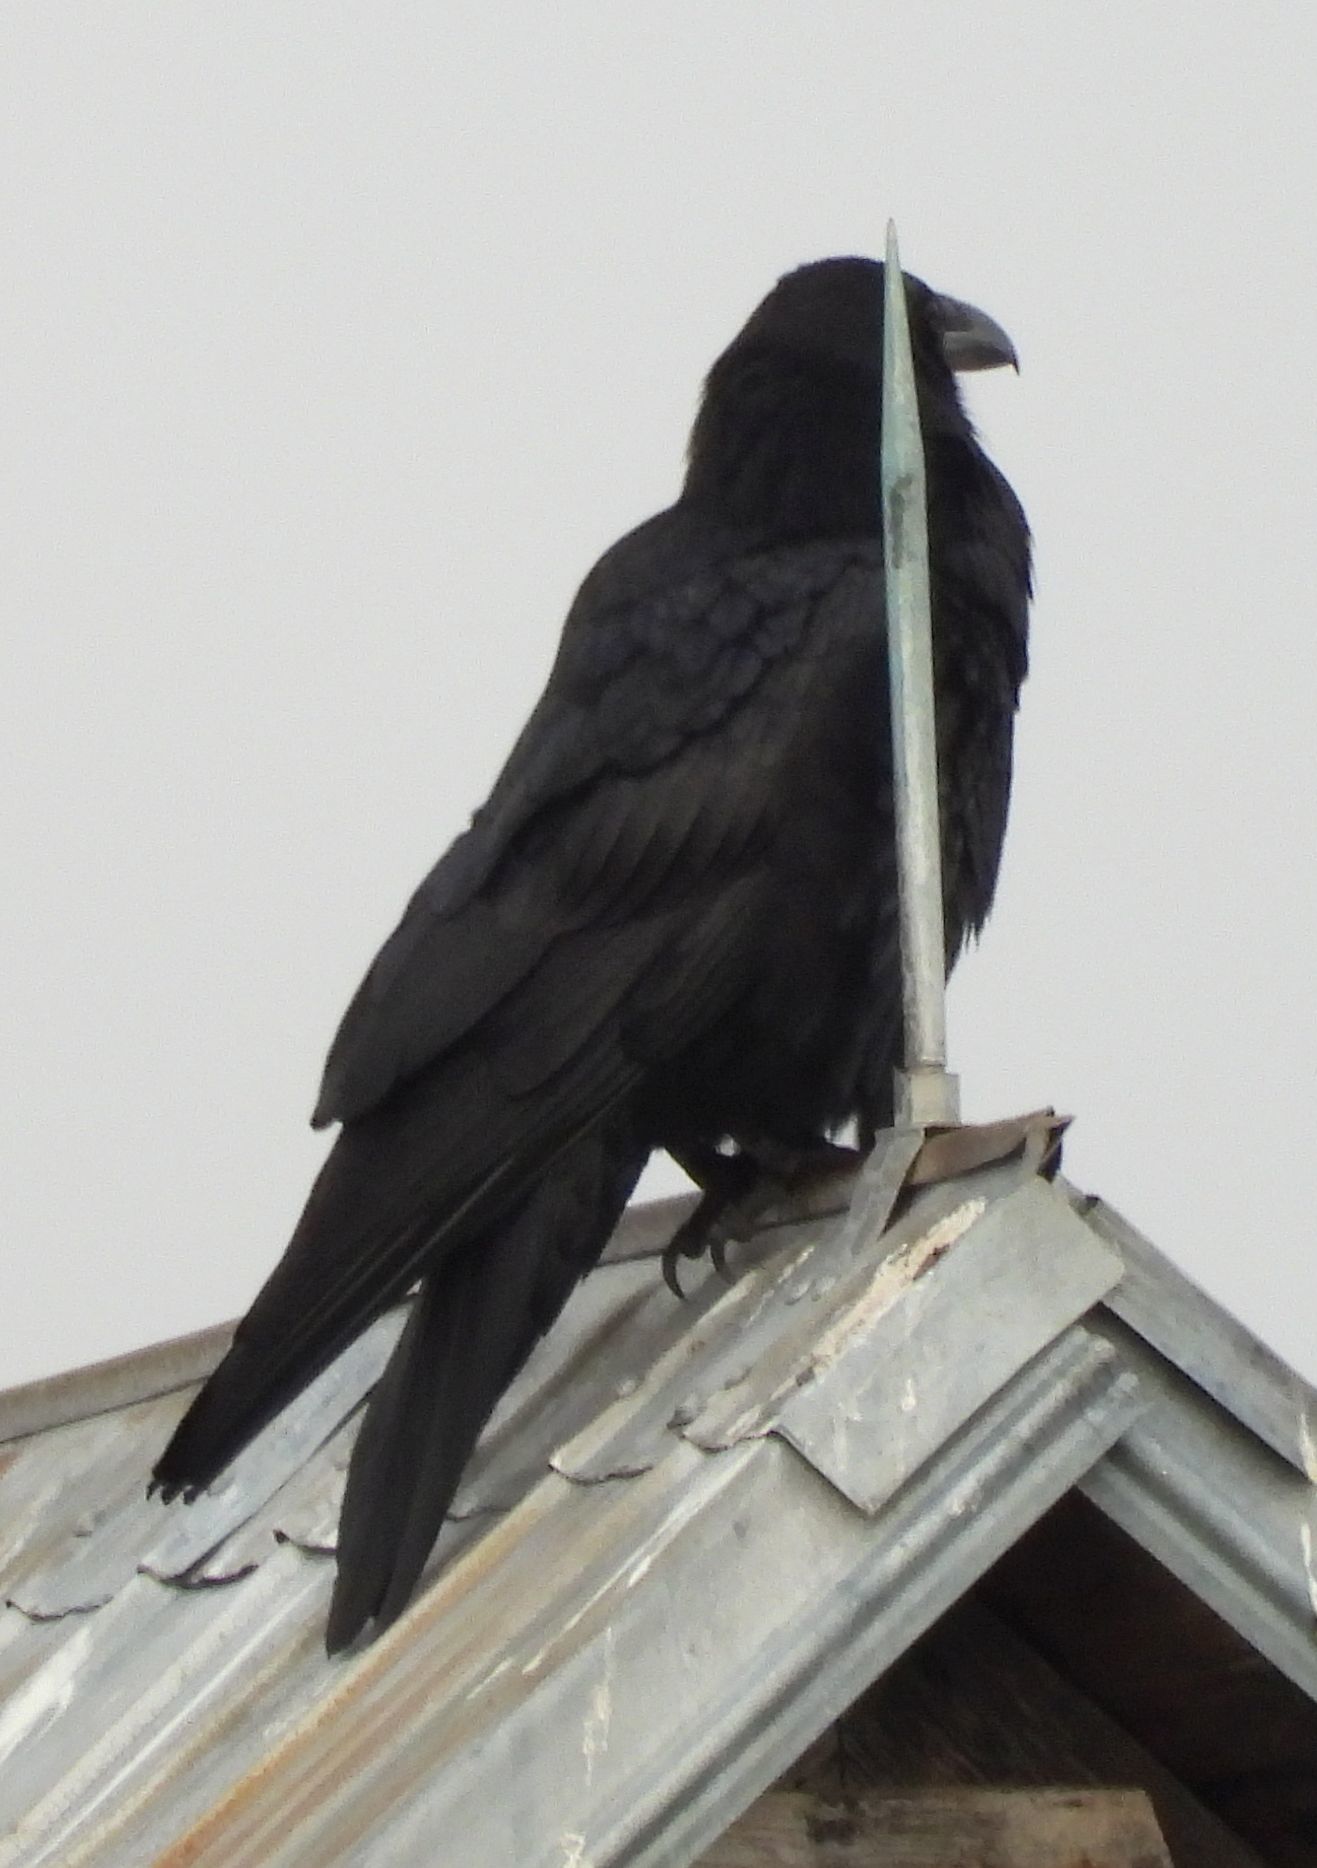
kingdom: Animalia
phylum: Chordata
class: Aves
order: Passeriformes
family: Corvidae
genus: Corvus
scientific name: Corvus corax
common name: Common raven
